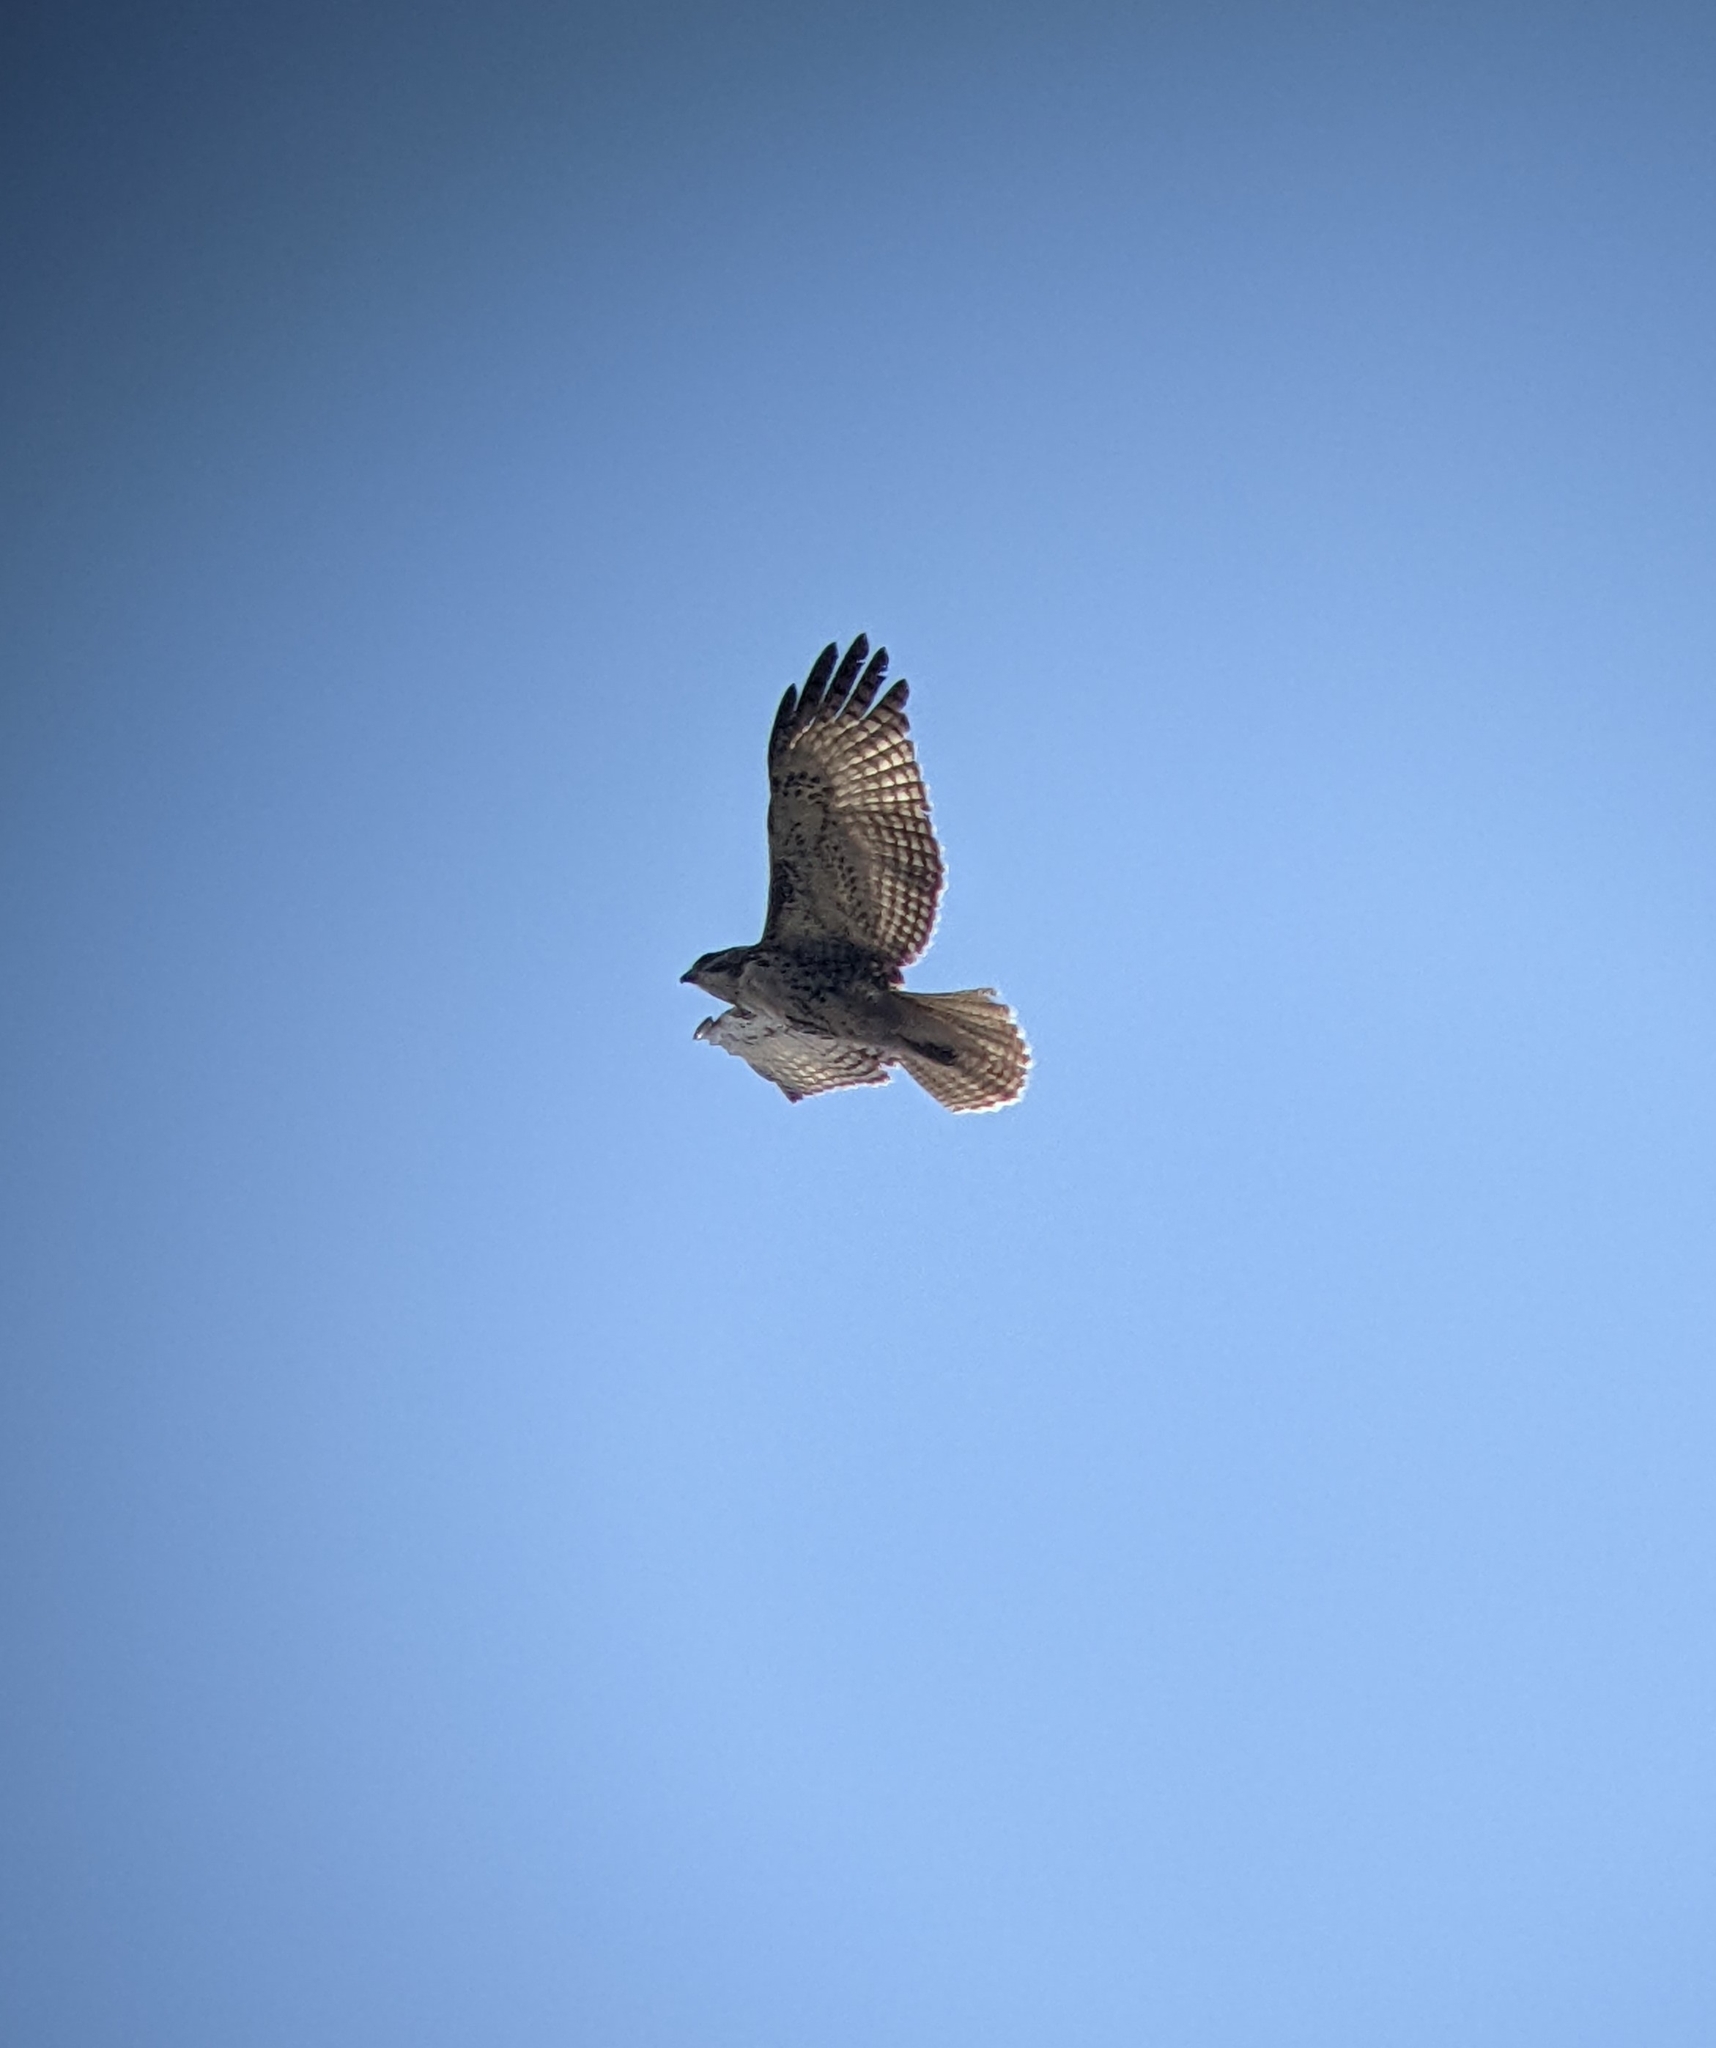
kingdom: Animalia
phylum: Chordata
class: Aves
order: Accipitriformes
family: Accipitridae
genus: Buteo
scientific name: Buteo jamaicensis
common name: Red-tailed hawk
